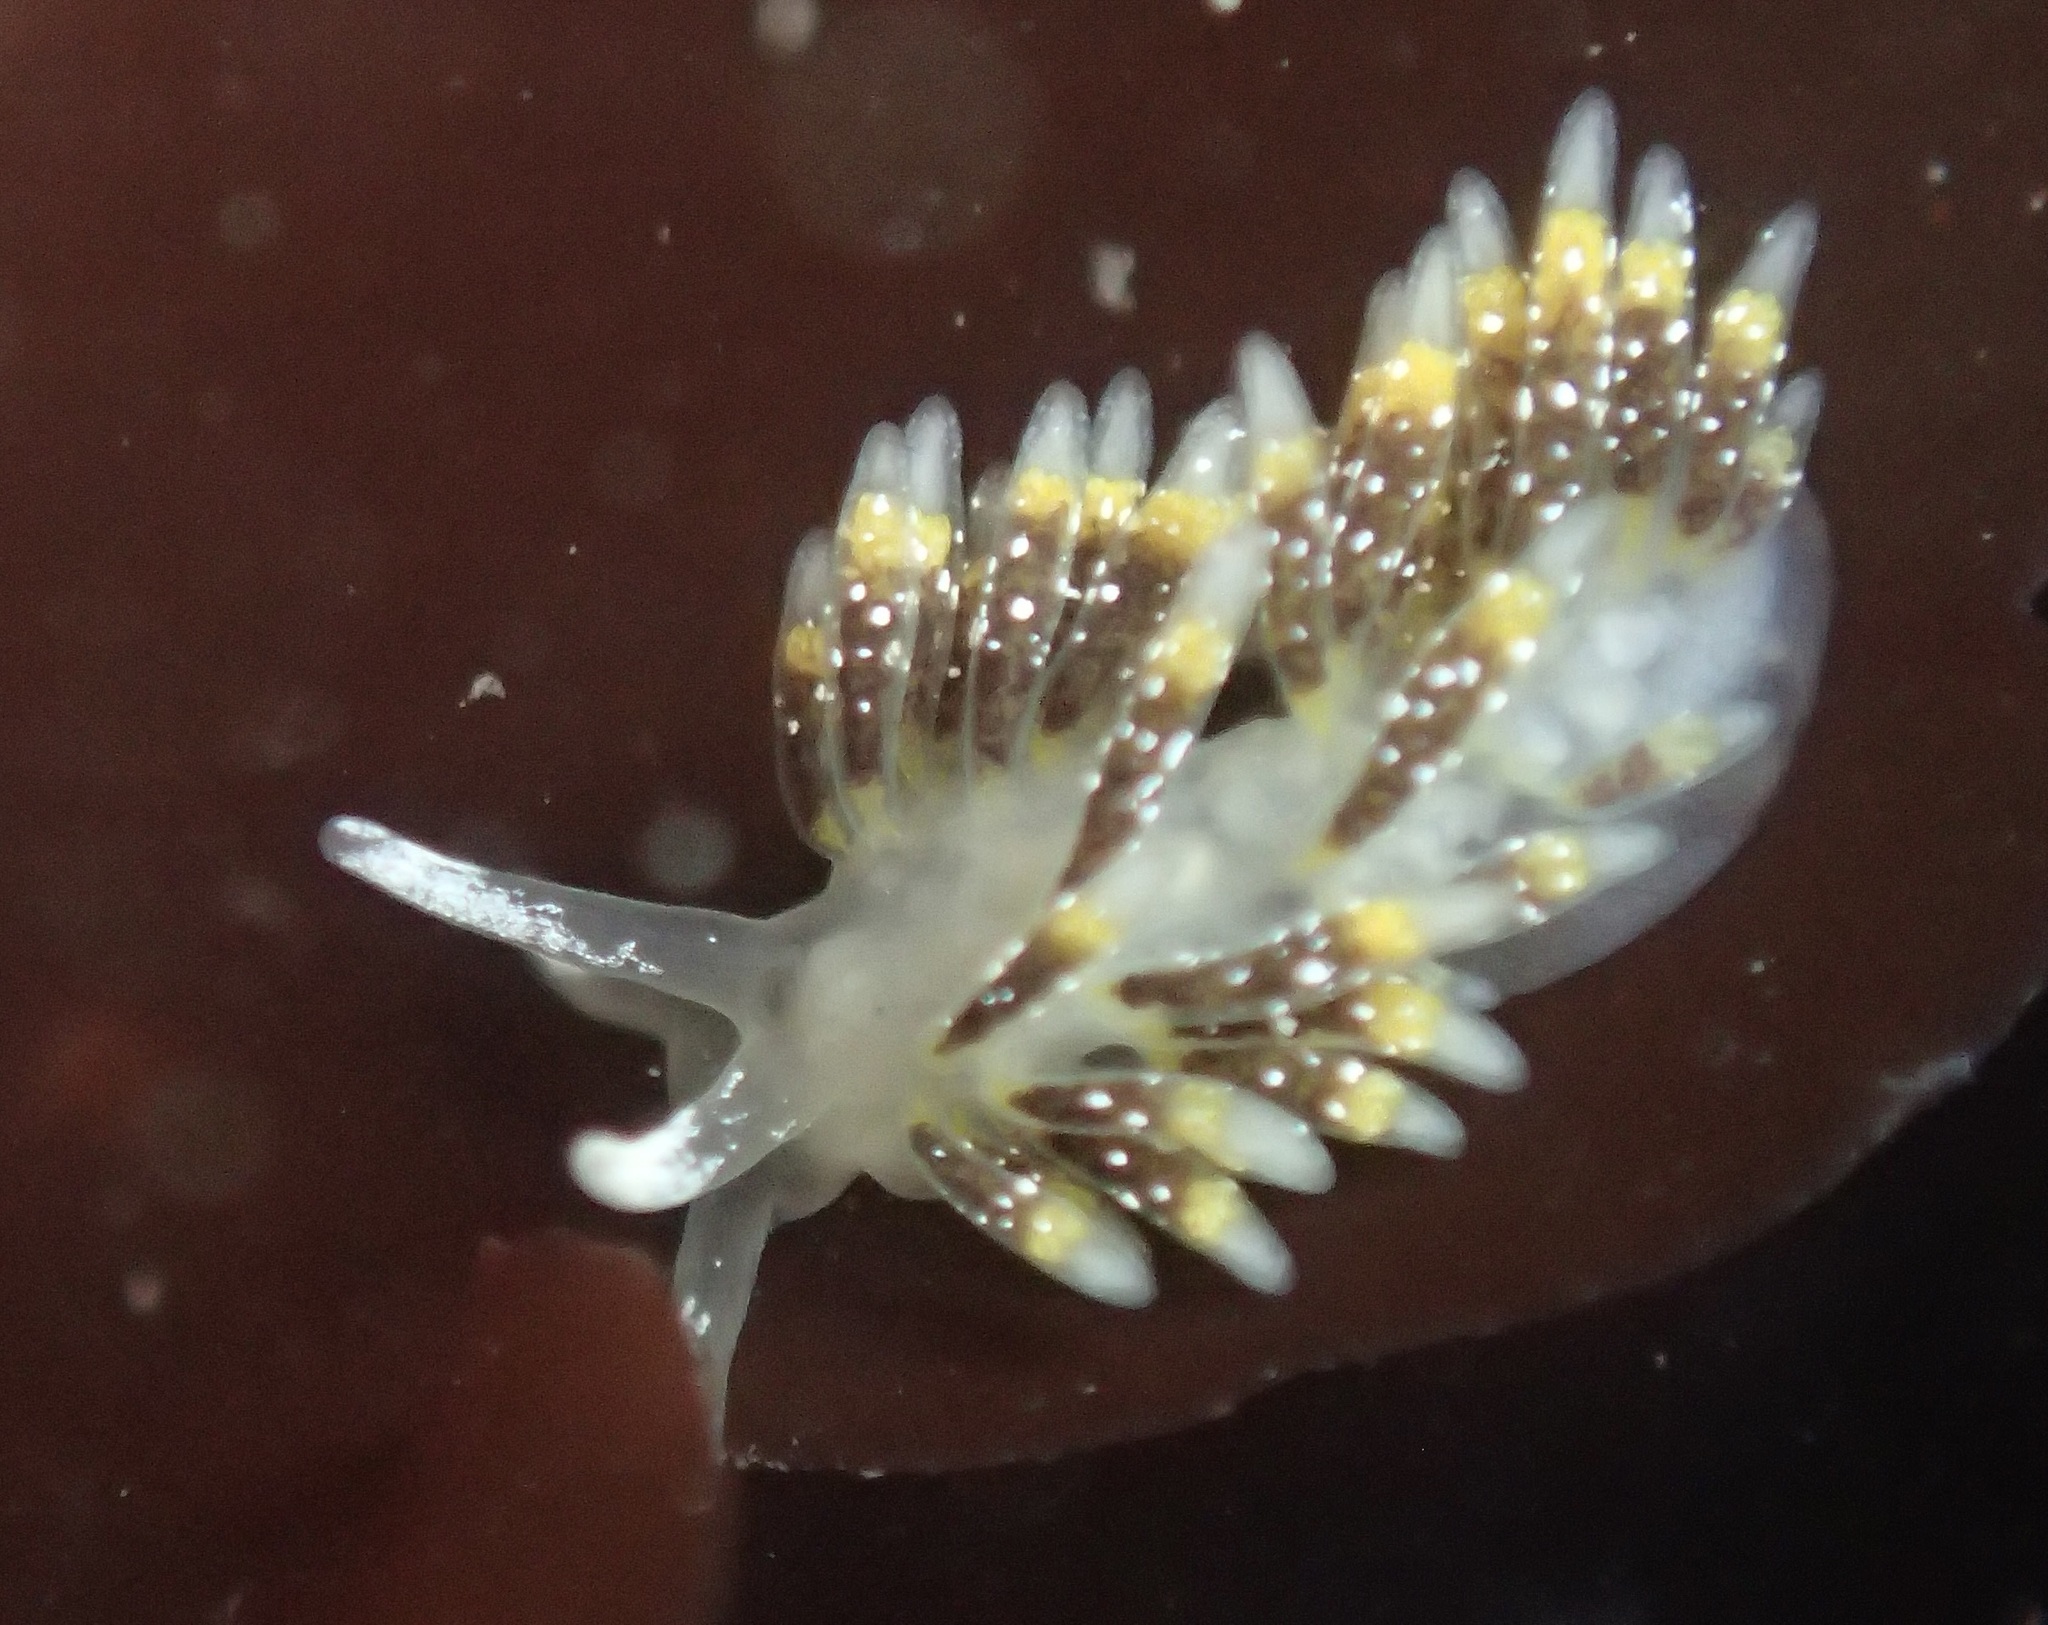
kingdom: Animalia
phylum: Mollusca
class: Gastropoda
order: Nudibranchia
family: Trinchesiidae
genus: Zelentia
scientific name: Zelentia fulgens
